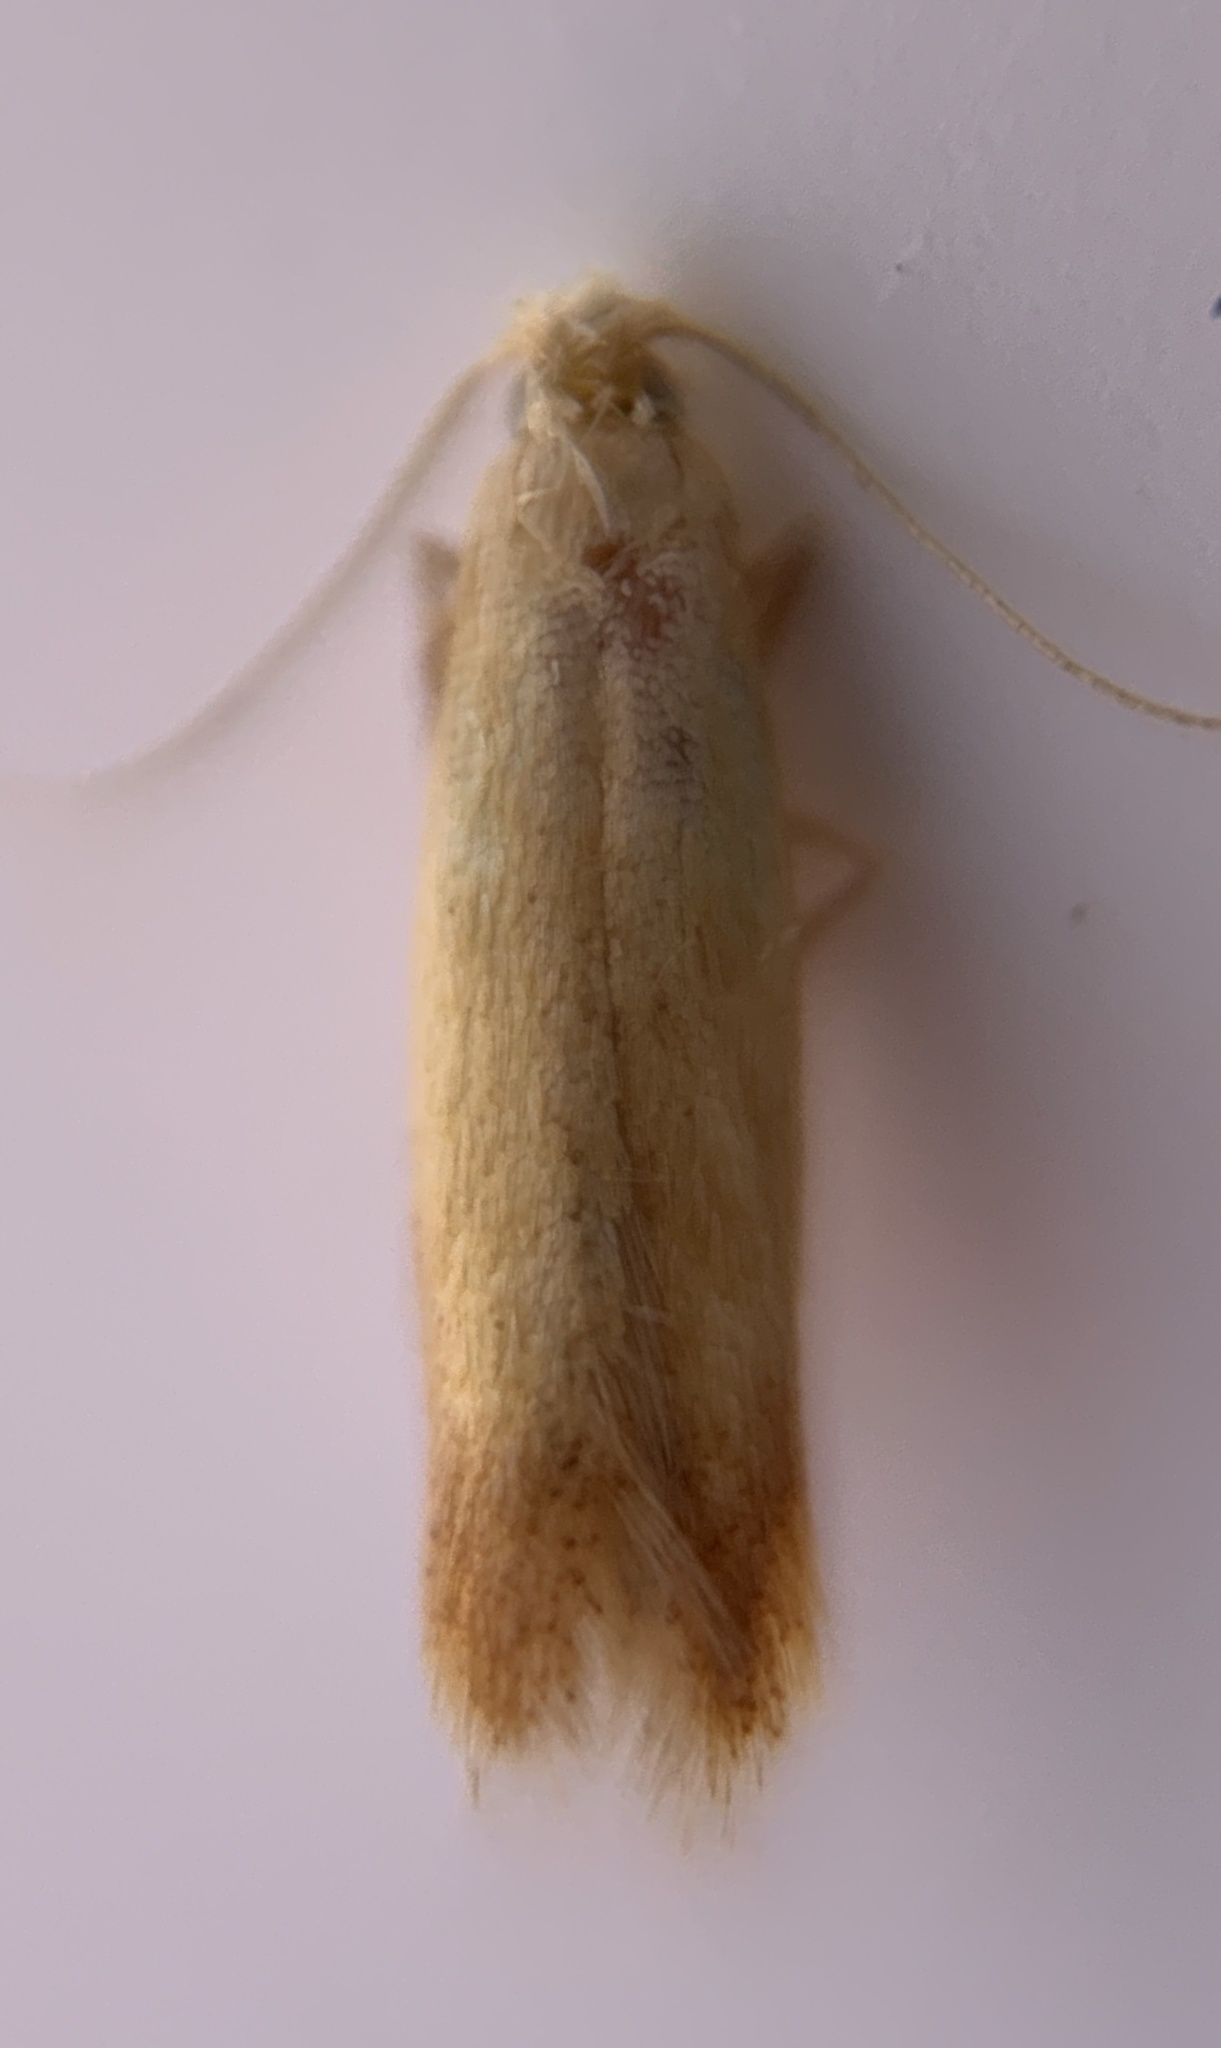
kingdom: Animalia
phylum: Arthropoda
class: Insecta
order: Lepidoptera
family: Tischeriidae
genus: Coptotriche
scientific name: Coptotriche citrinipennella
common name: The golden sweeper
